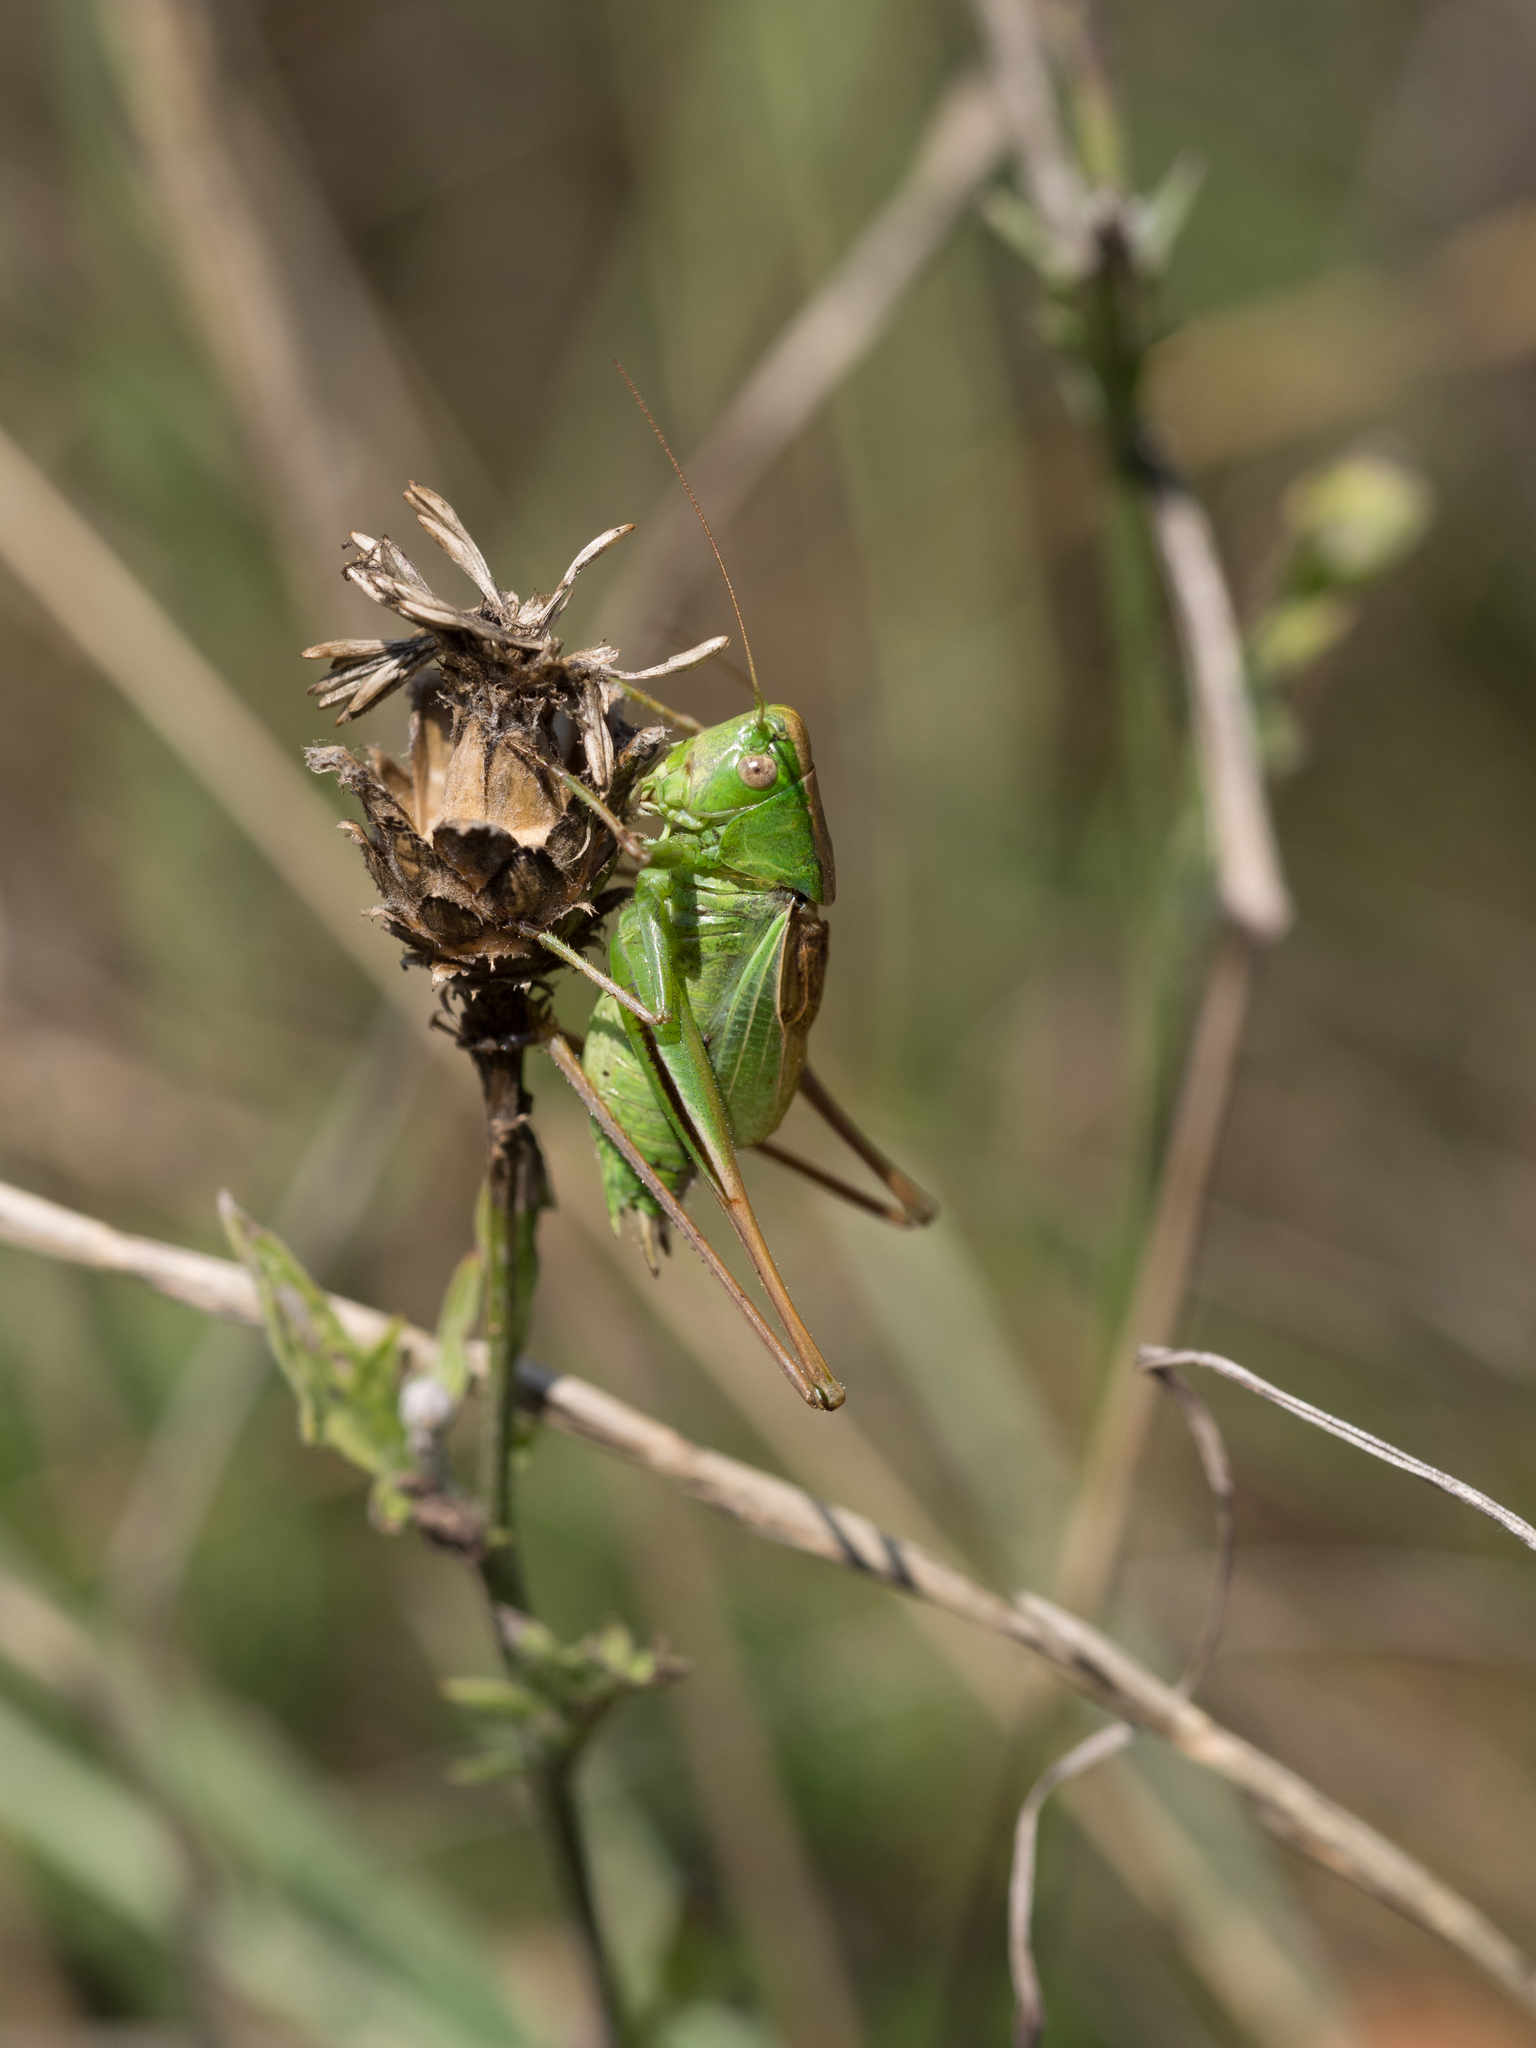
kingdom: Animalia
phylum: Arthropoda
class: Insecta
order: Orthoptera
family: Tettigoniidae
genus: Bicolorana
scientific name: Bicolorana bicolor
